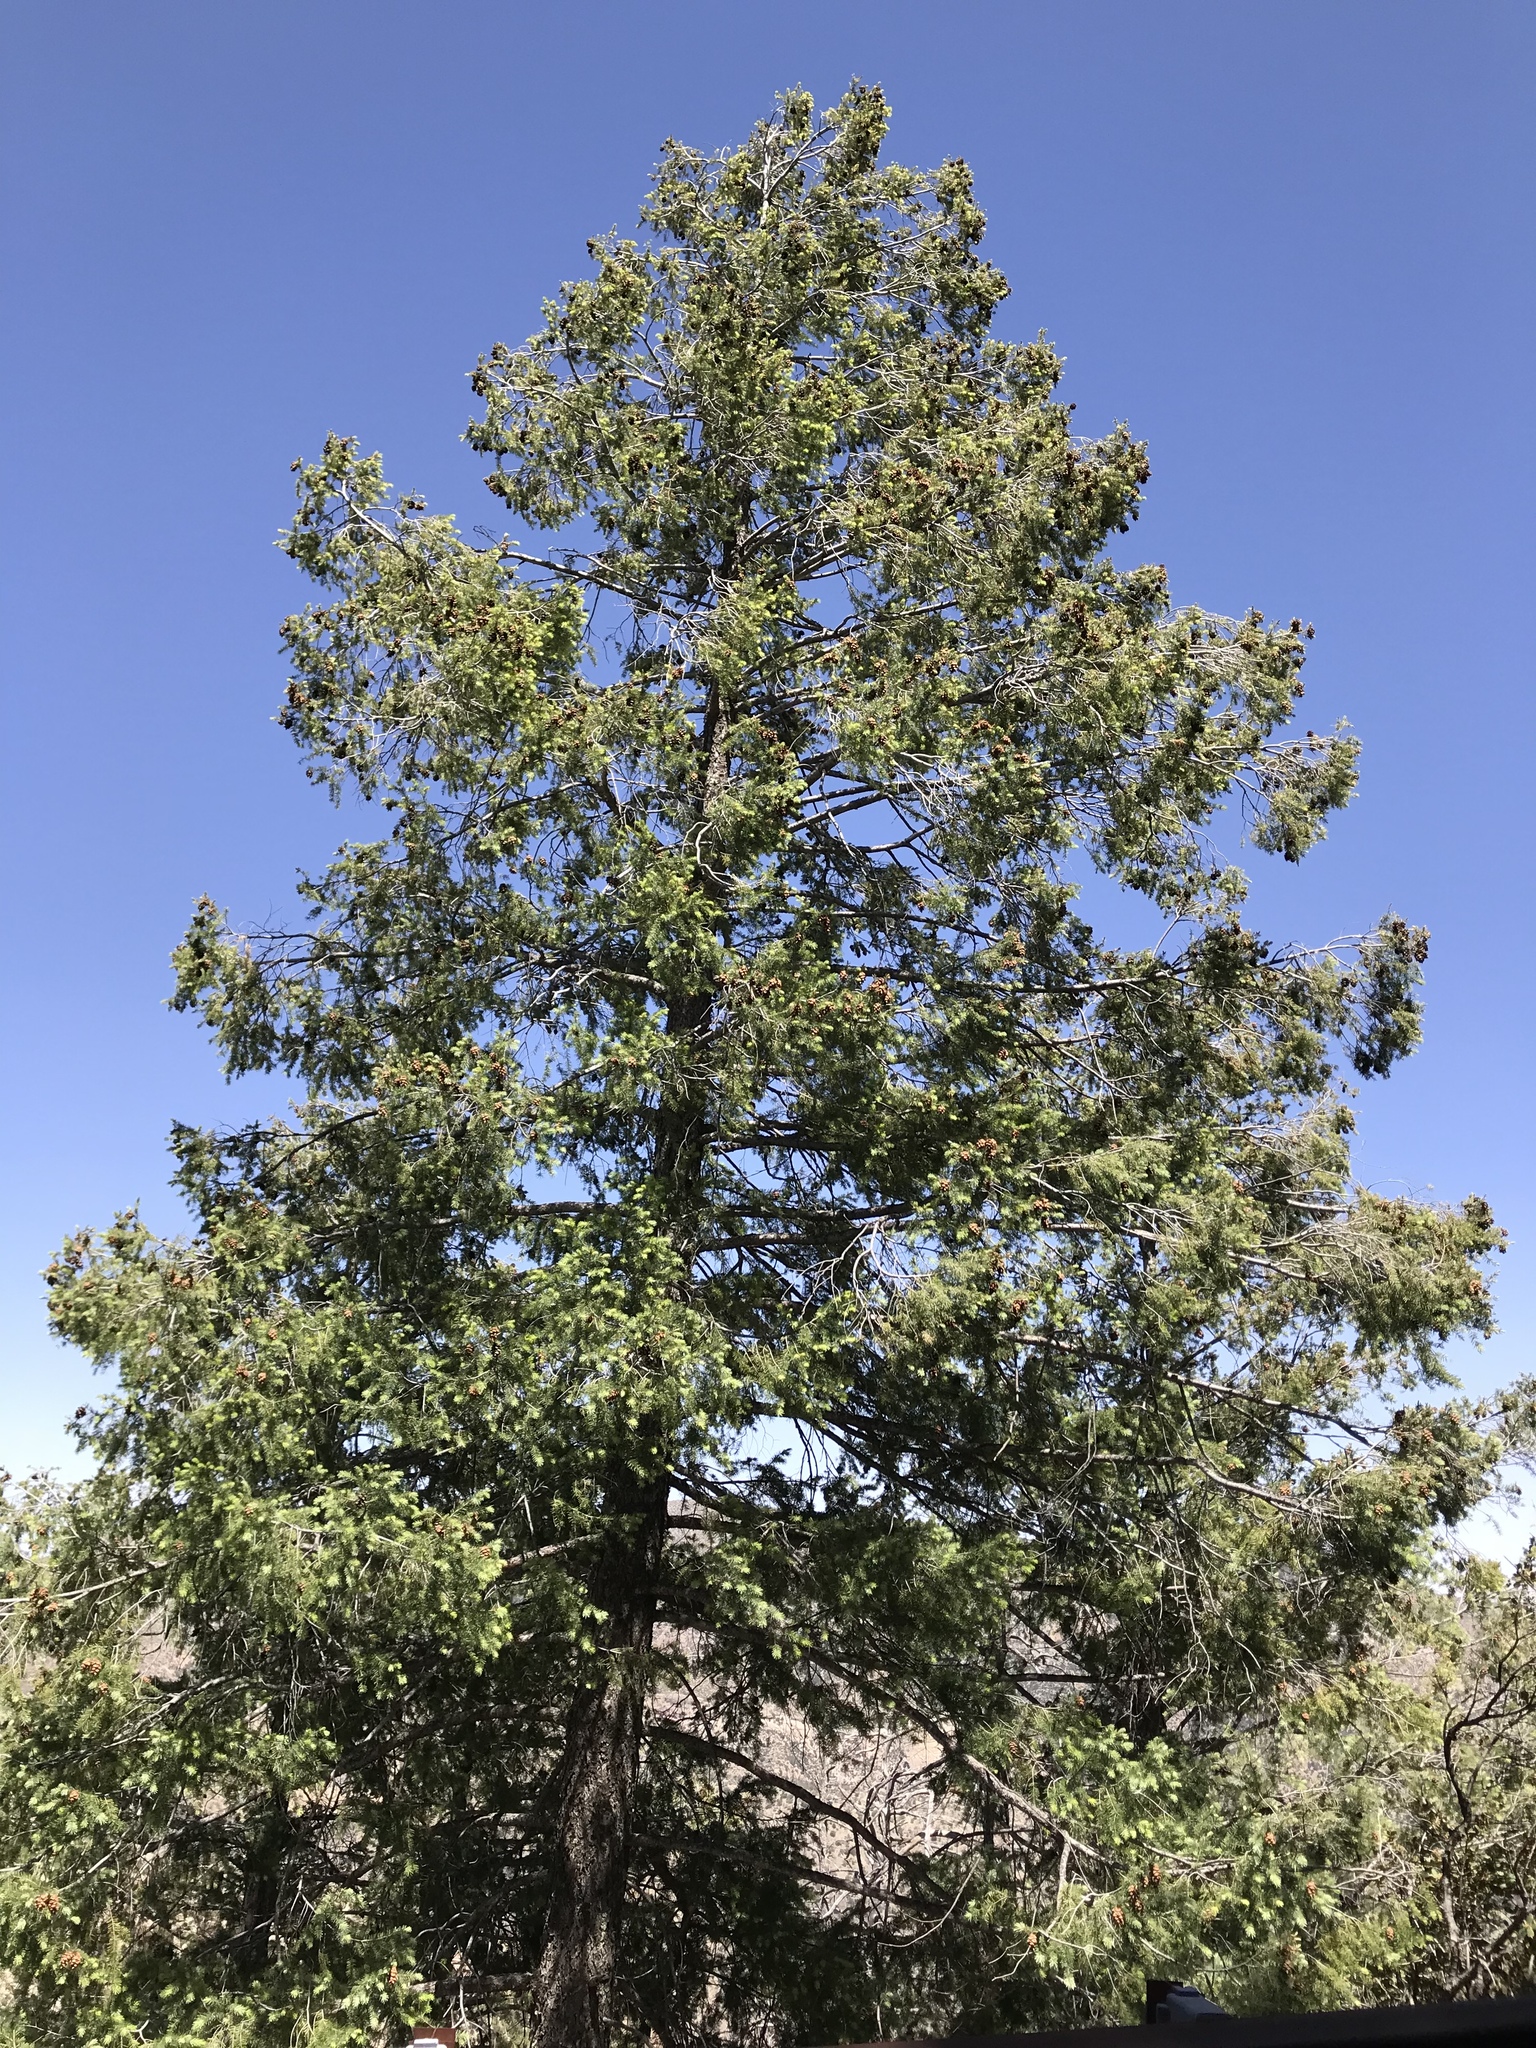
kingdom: Plantae
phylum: Tracheophyta
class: Pinopsida
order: Pinales
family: Pinaceae
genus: Pseudotsuga
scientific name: Pseudotsuga menziesii
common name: Douglas fir
